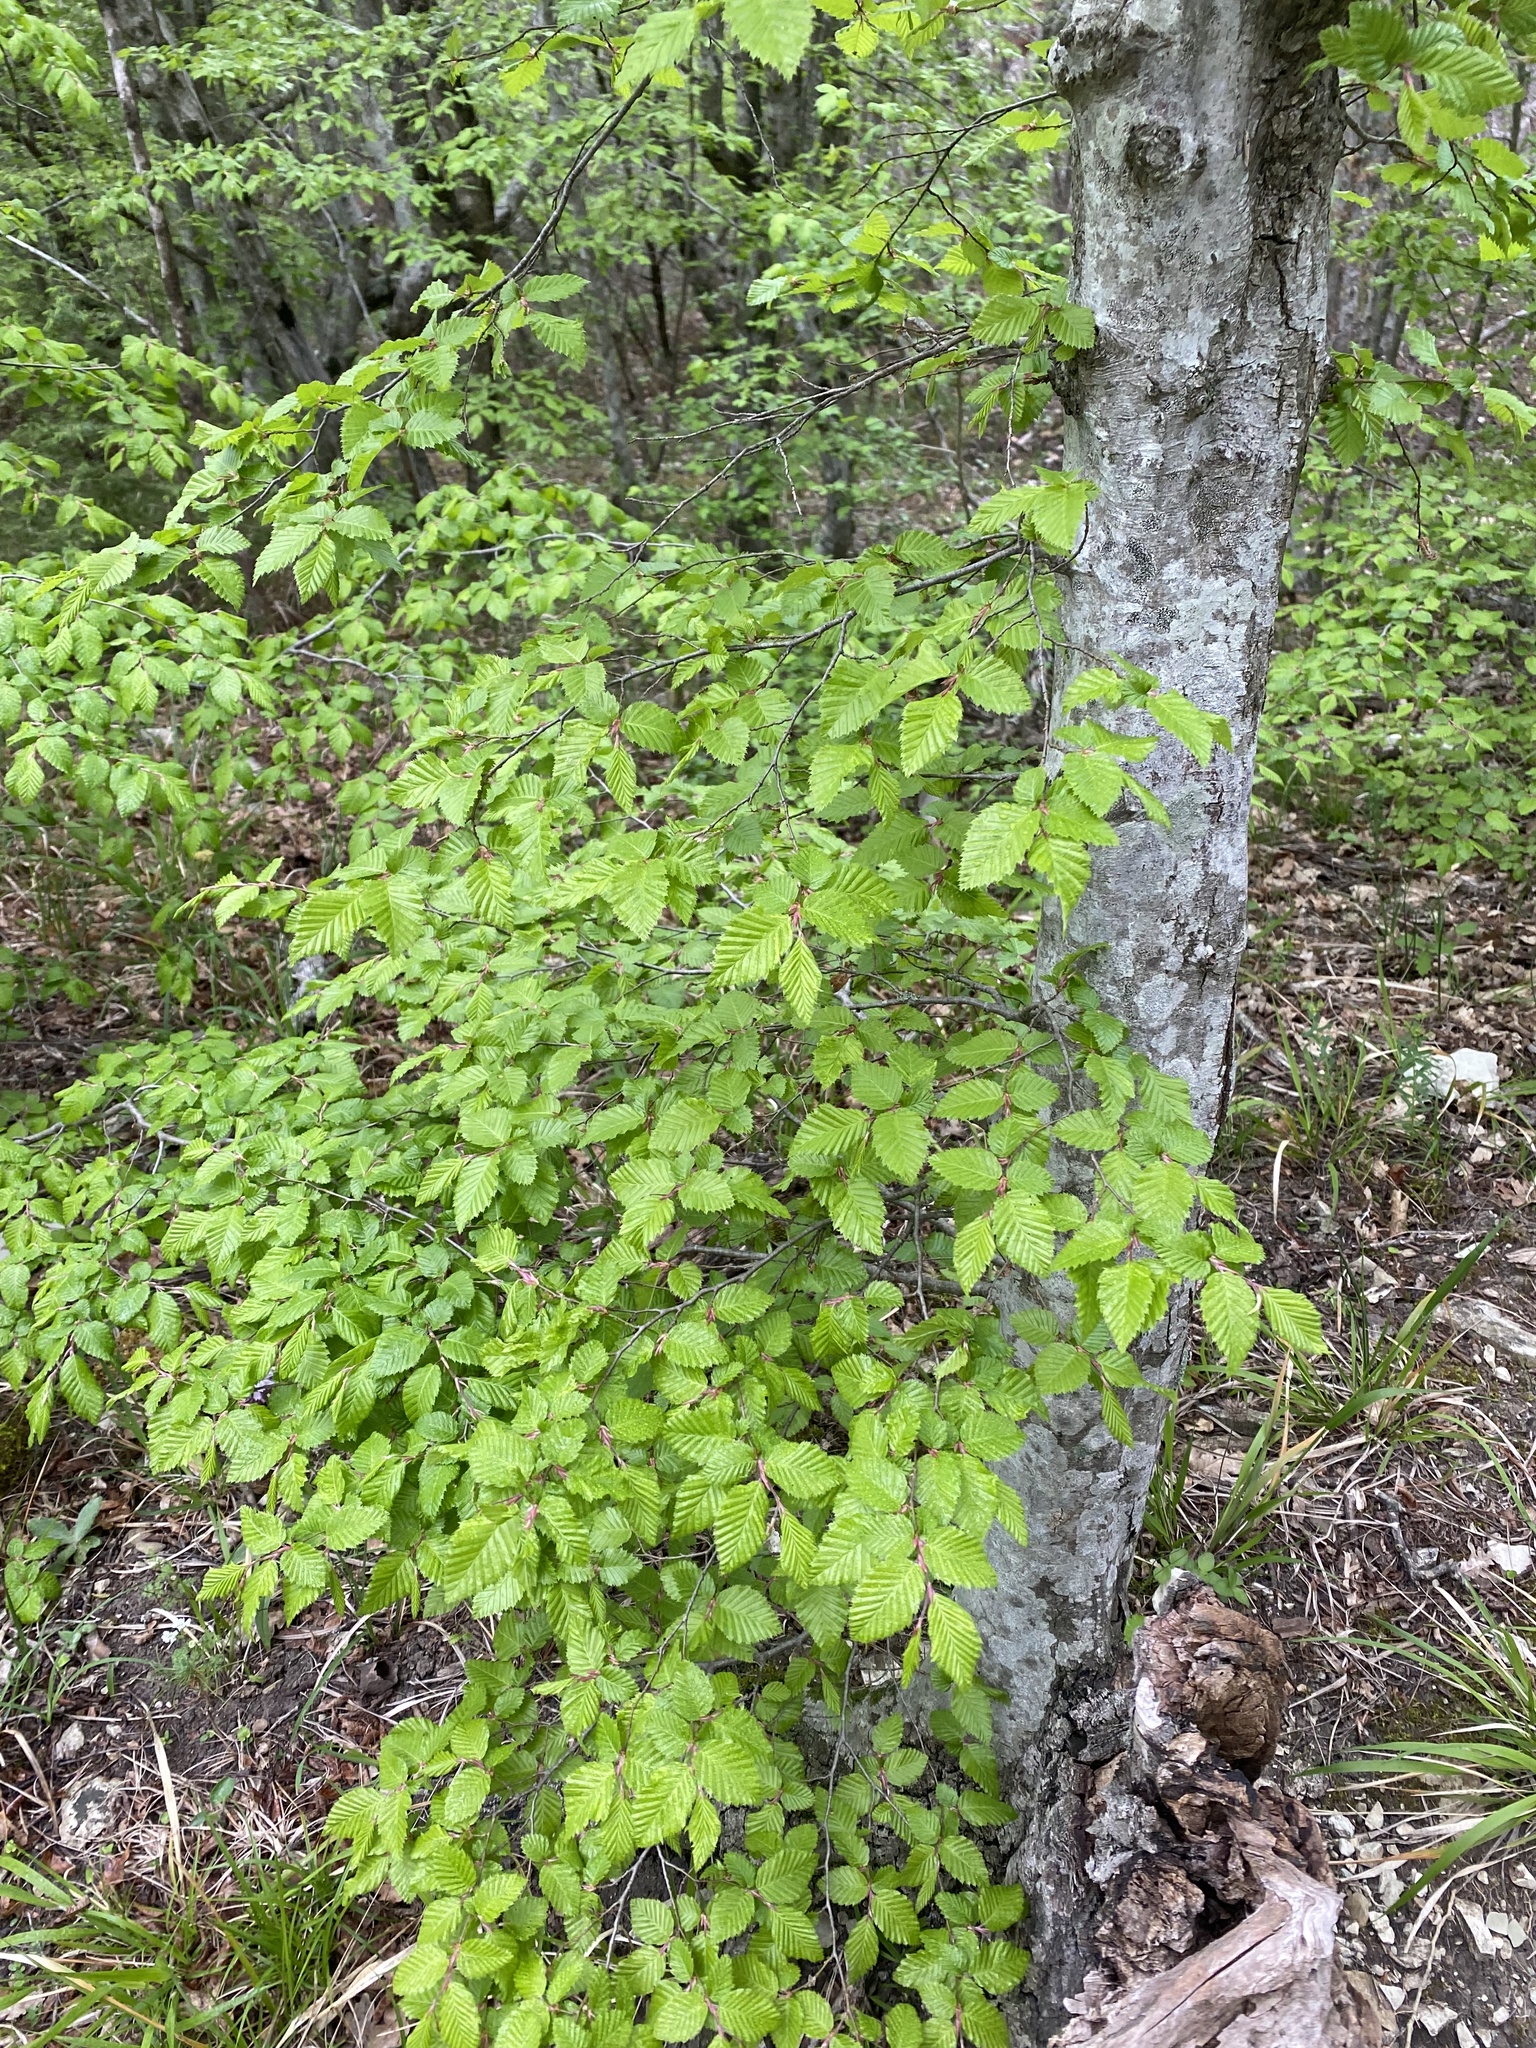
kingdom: Plantae
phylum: Tracheophyta
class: Magnoliopsida
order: Fagales
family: Betulaceae
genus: Carpinus
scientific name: Carpinus orientalis
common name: Eastern hornbeam
